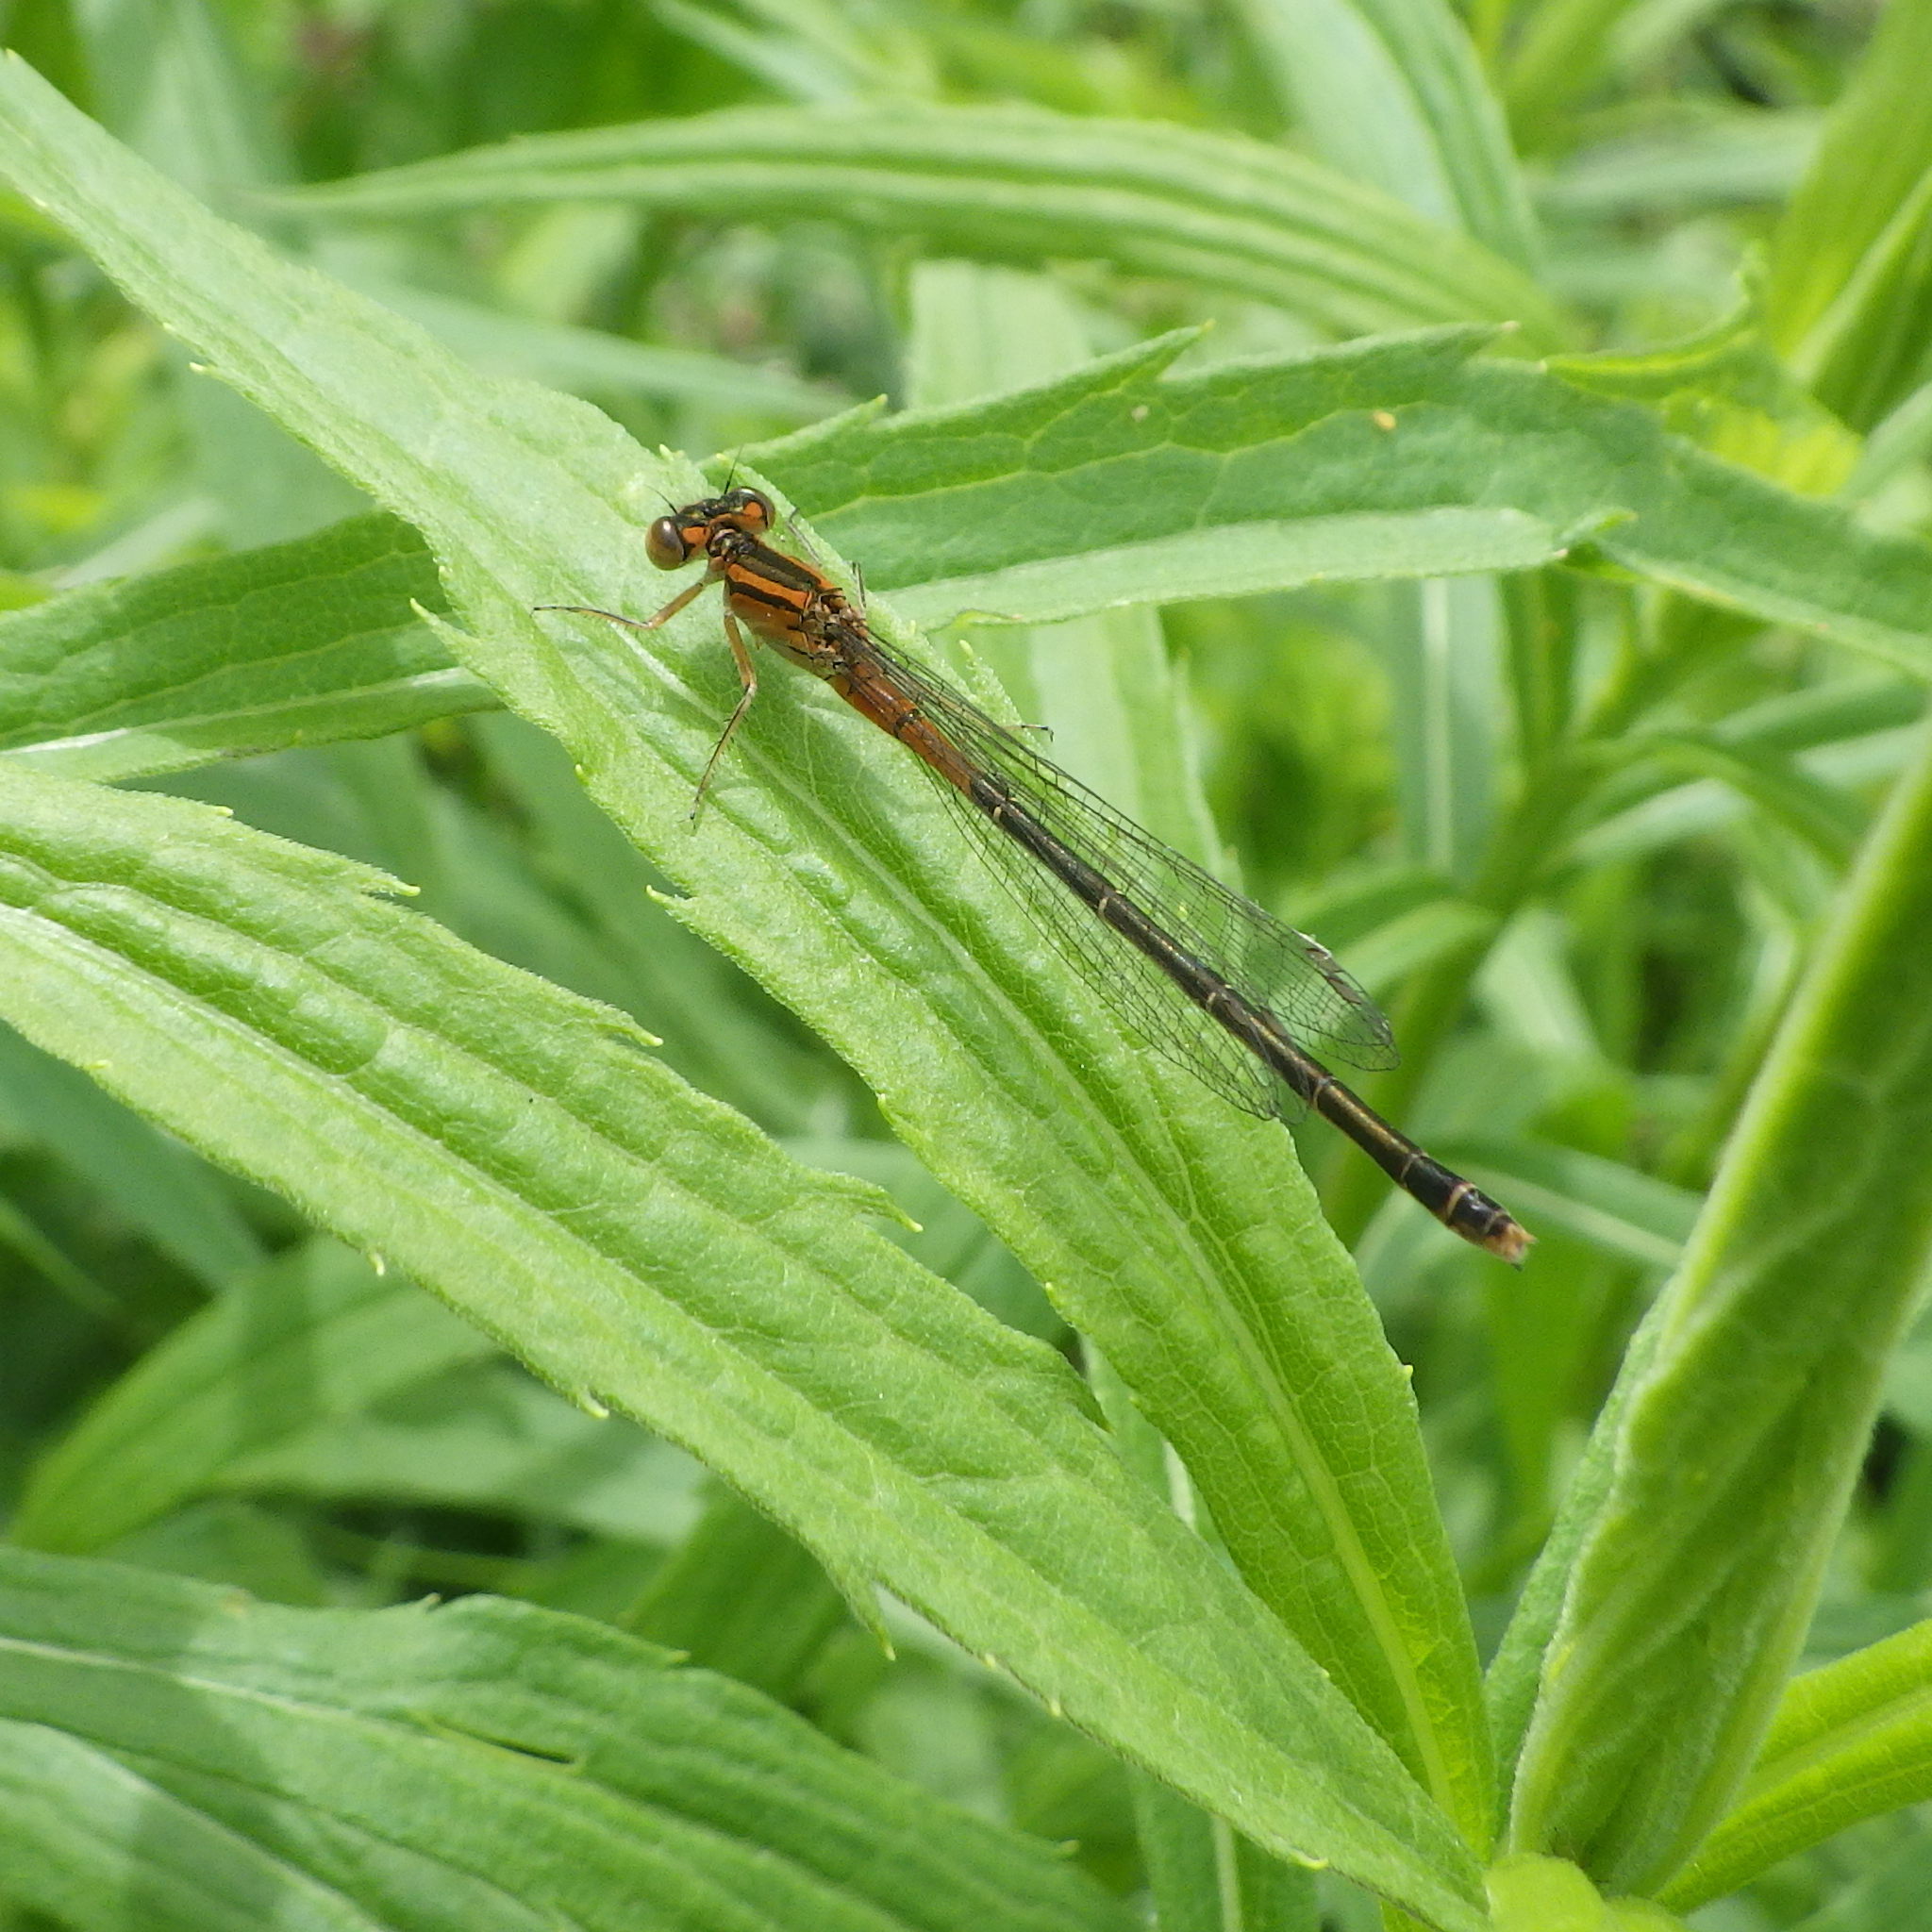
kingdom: Animalia
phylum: Arthropoda
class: Insecta
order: Odonata
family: Coenagrionidae
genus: Ischnura
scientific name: Ischnura verticalis
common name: Eastern forktail
